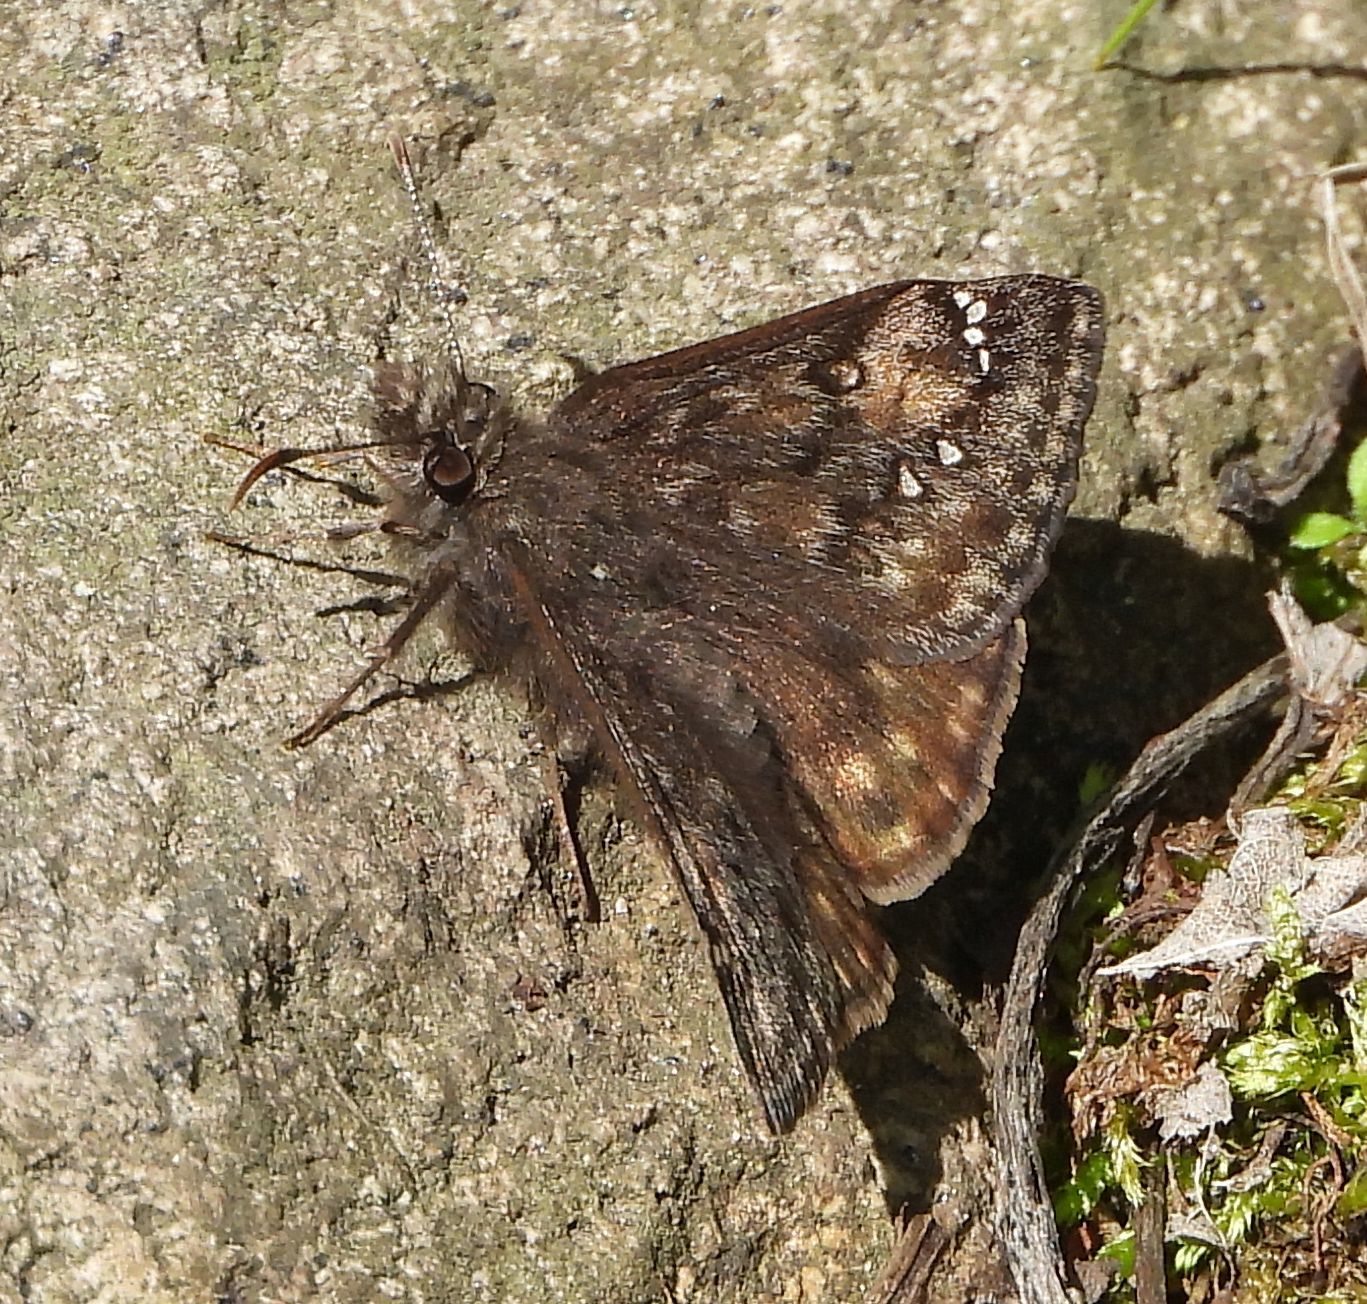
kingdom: Animalia
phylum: Arthropoda
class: Insecta
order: Lepidoptera
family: Hesperiidae
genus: Erynnis
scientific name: Erynnis juvenalis
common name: Juvenal's duskywing
